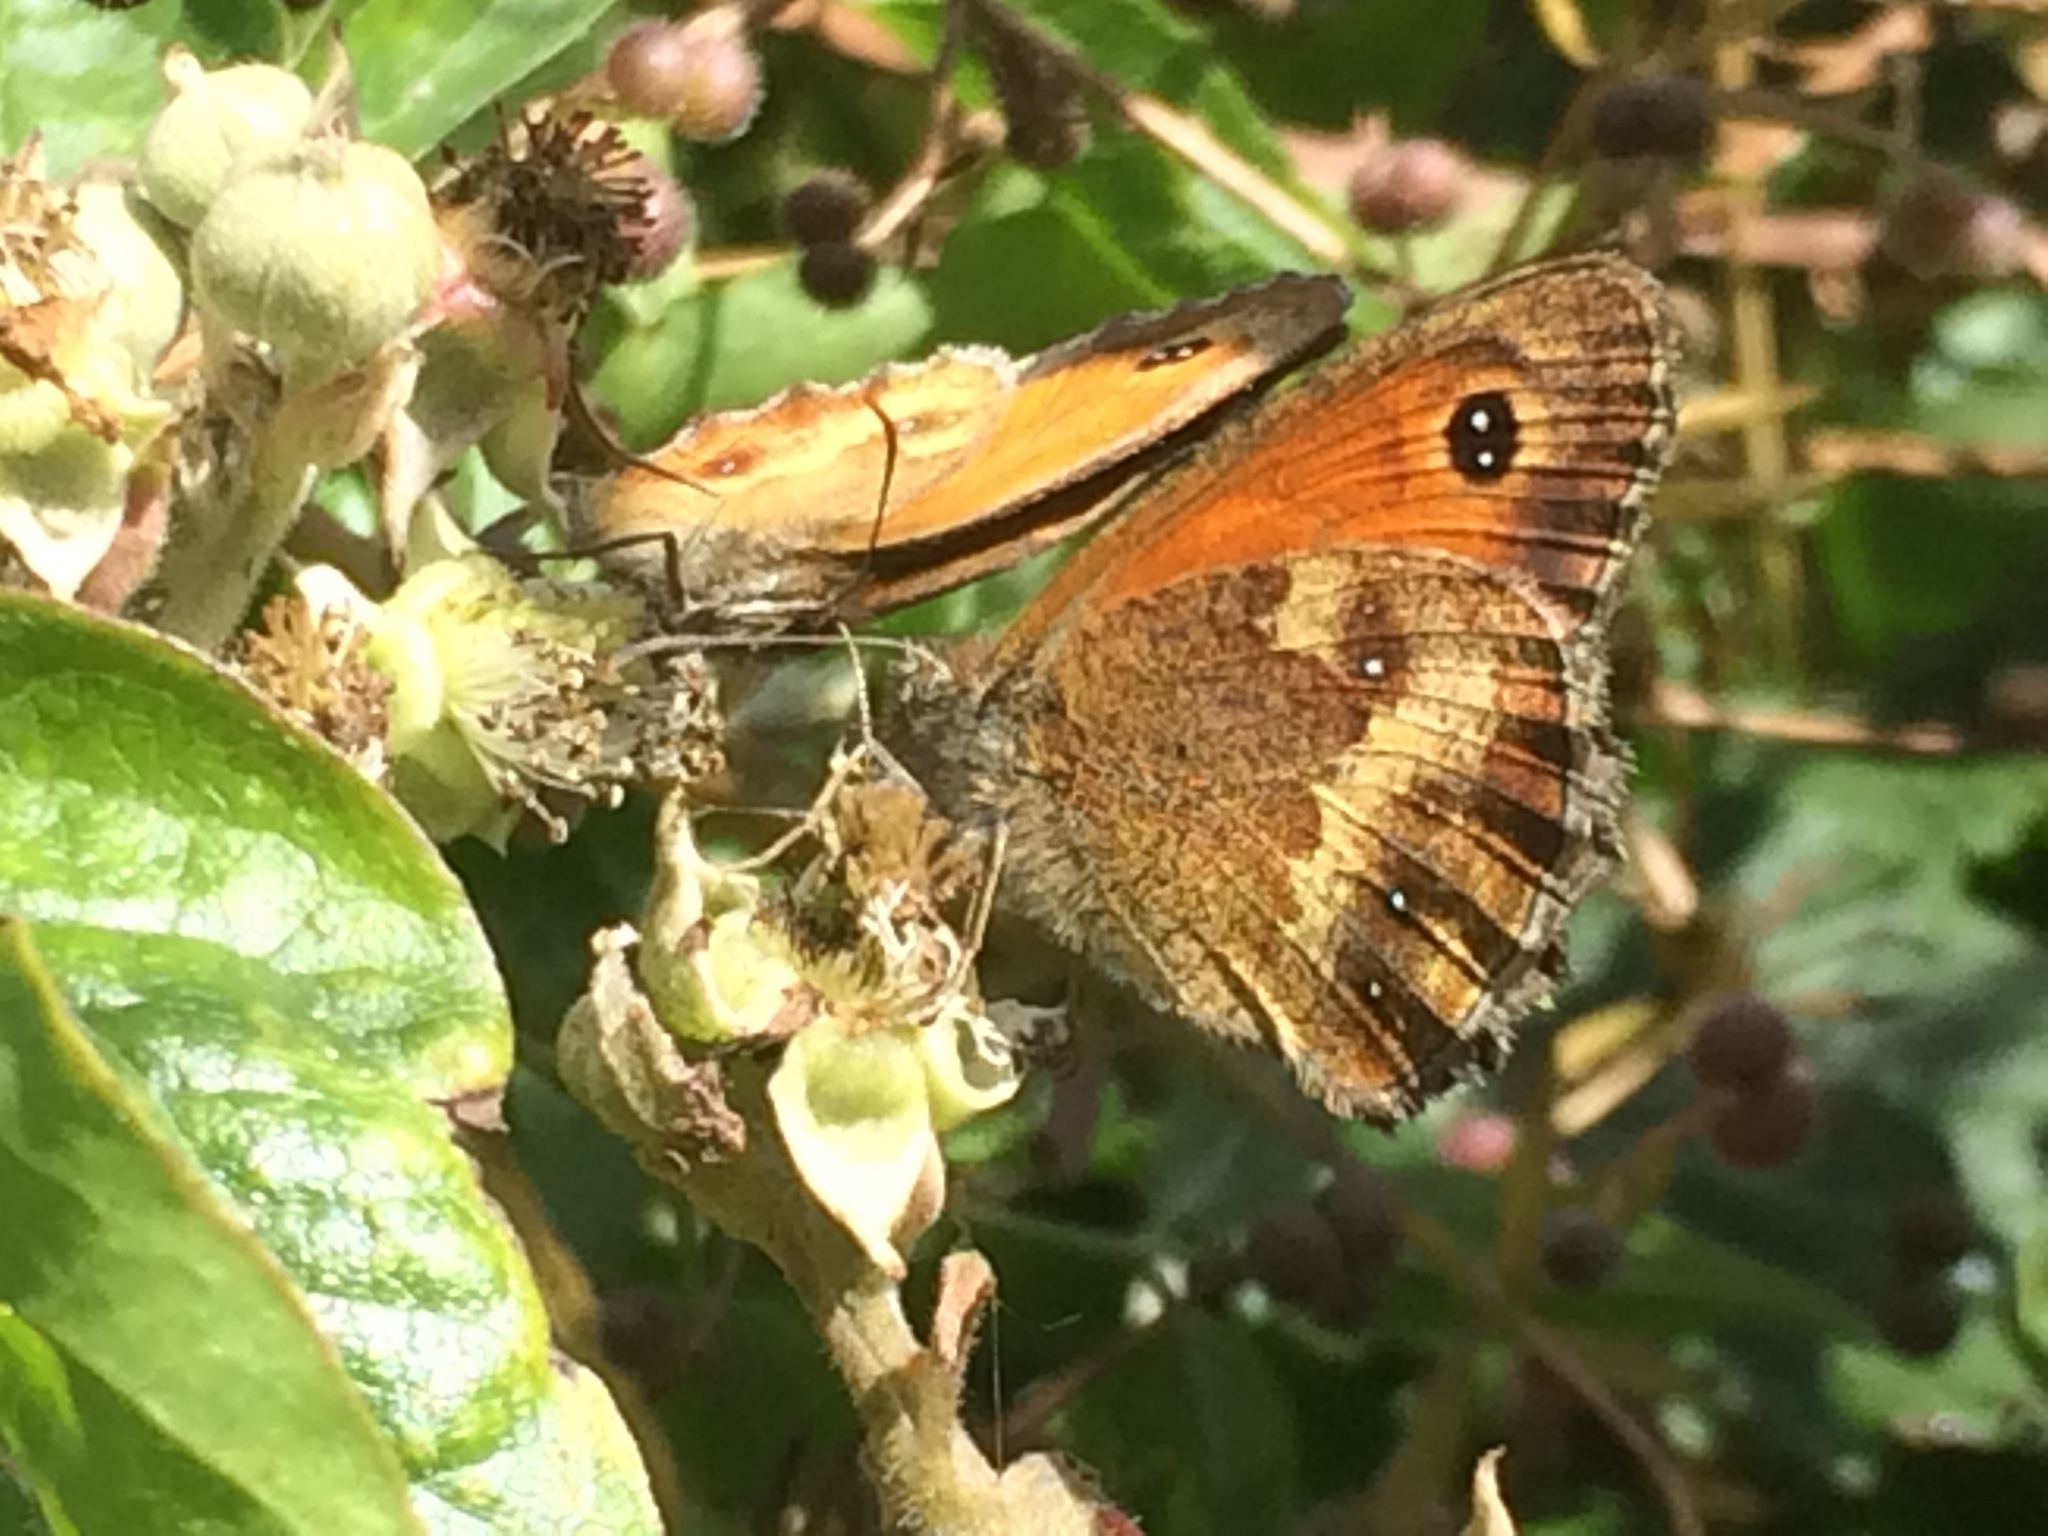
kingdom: Animalia
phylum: Arthropoda
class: Insecta
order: Lepidoptera
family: Nymphalidae
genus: Pyronia
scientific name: Pyronia tithonus
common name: Gatekeeper
